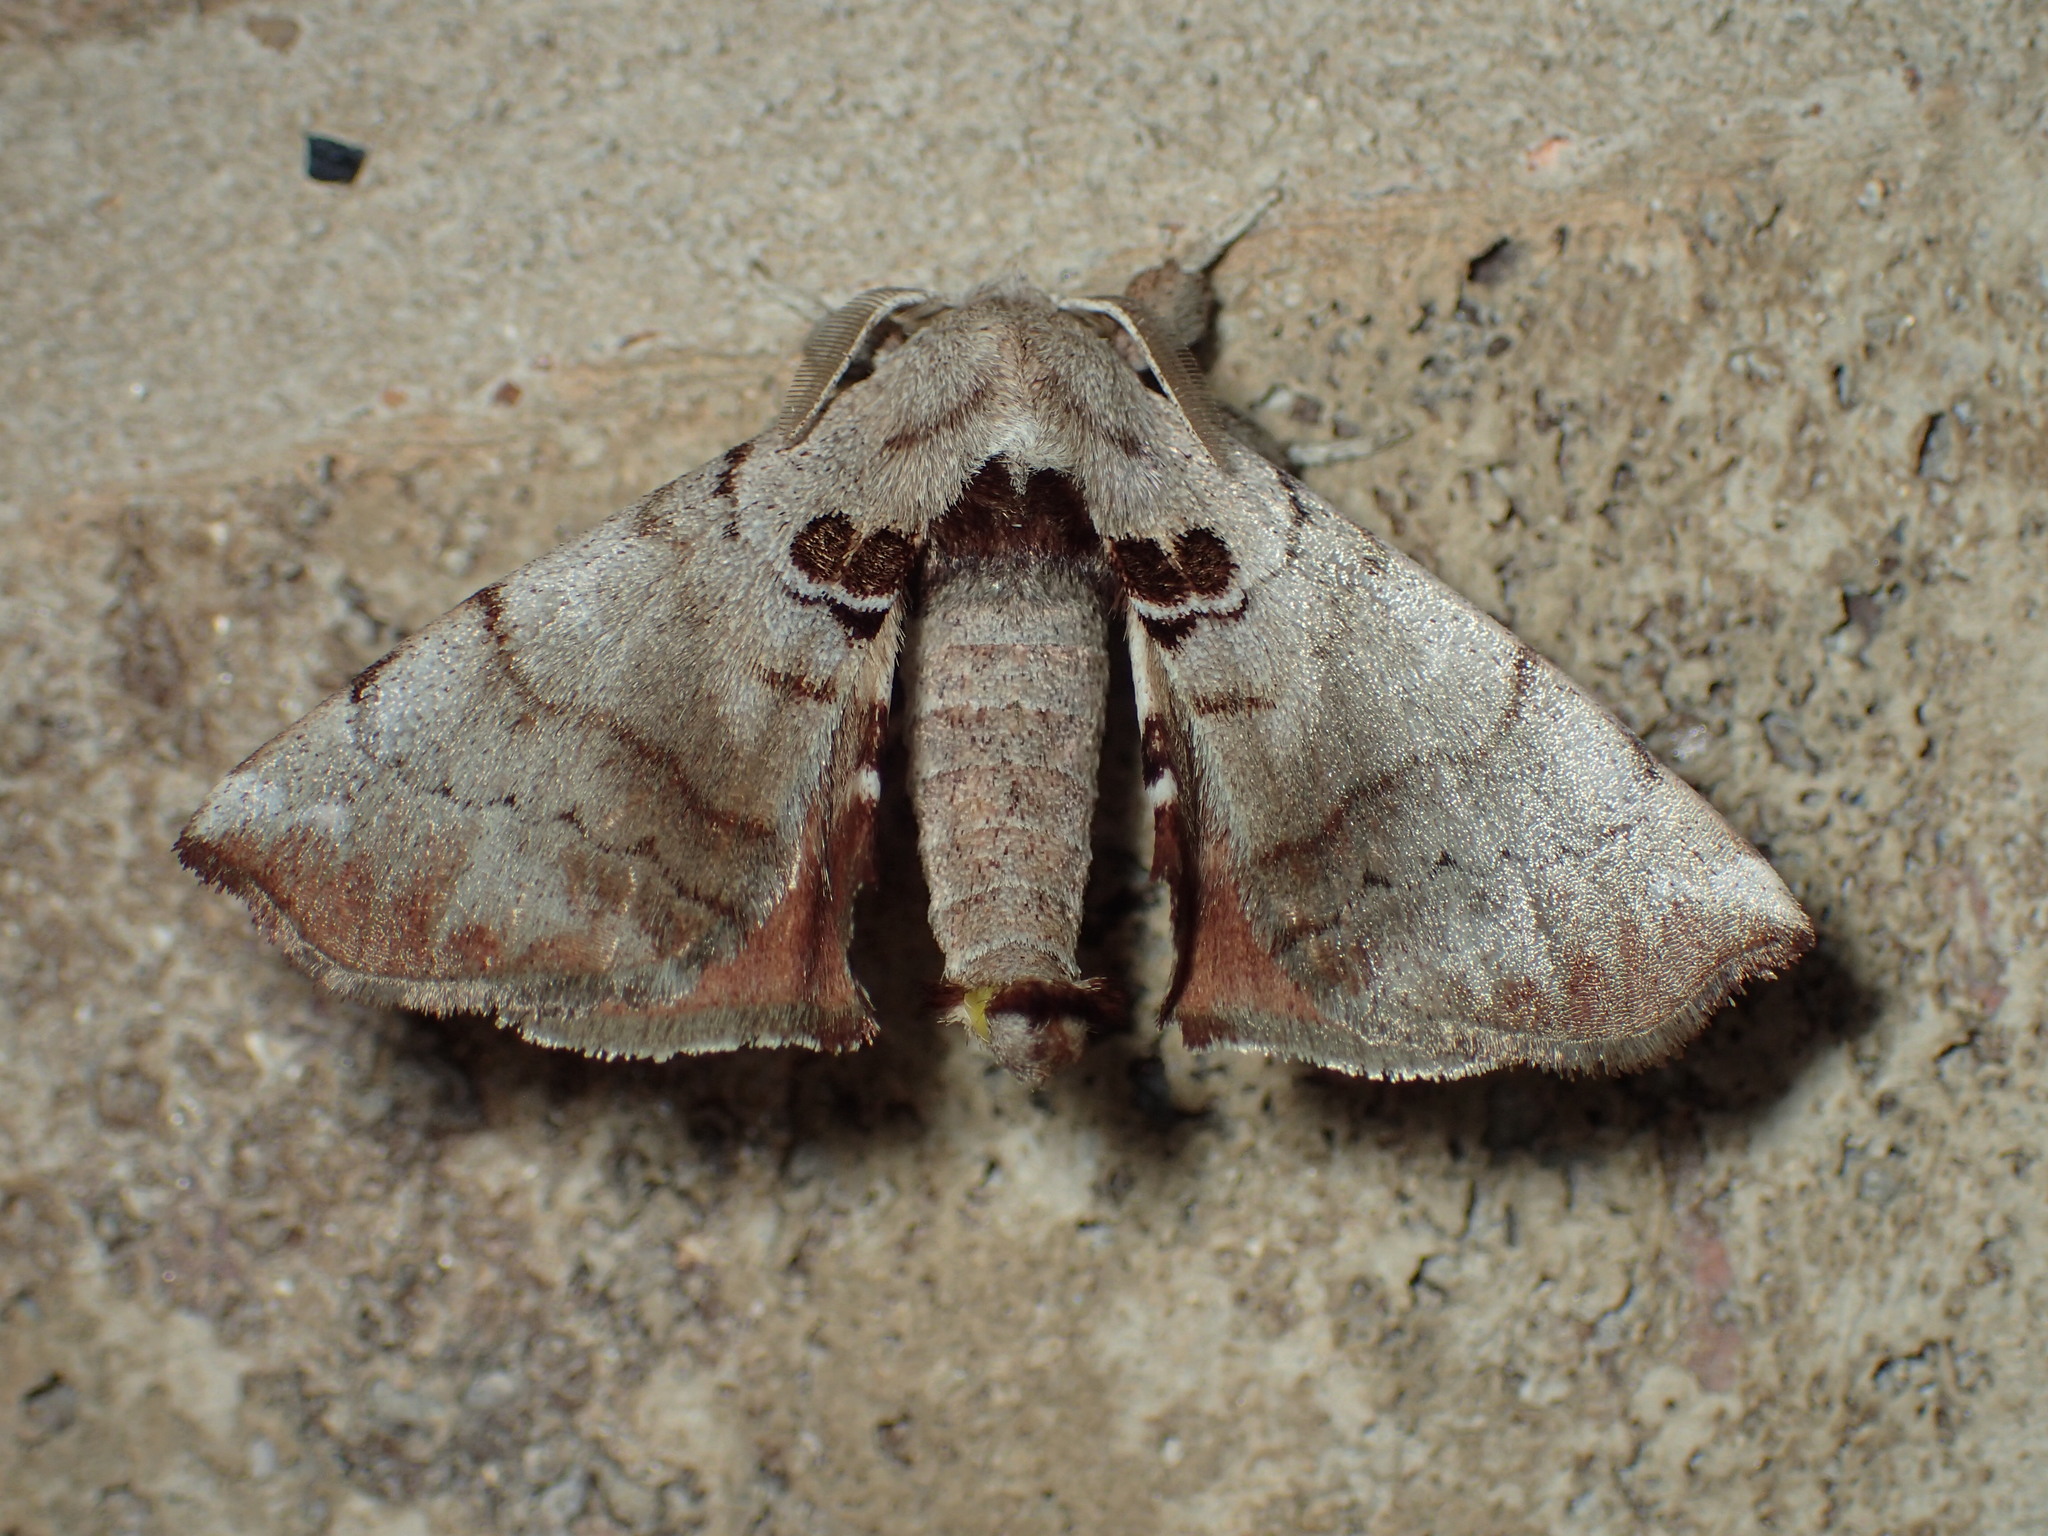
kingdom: Animalia
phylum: Arthropoda
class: Insecta
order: Lepidoptera
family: Apatelodidae
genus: Hygrochroa
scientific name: Hygrochroa Apatelodes torrefacta
